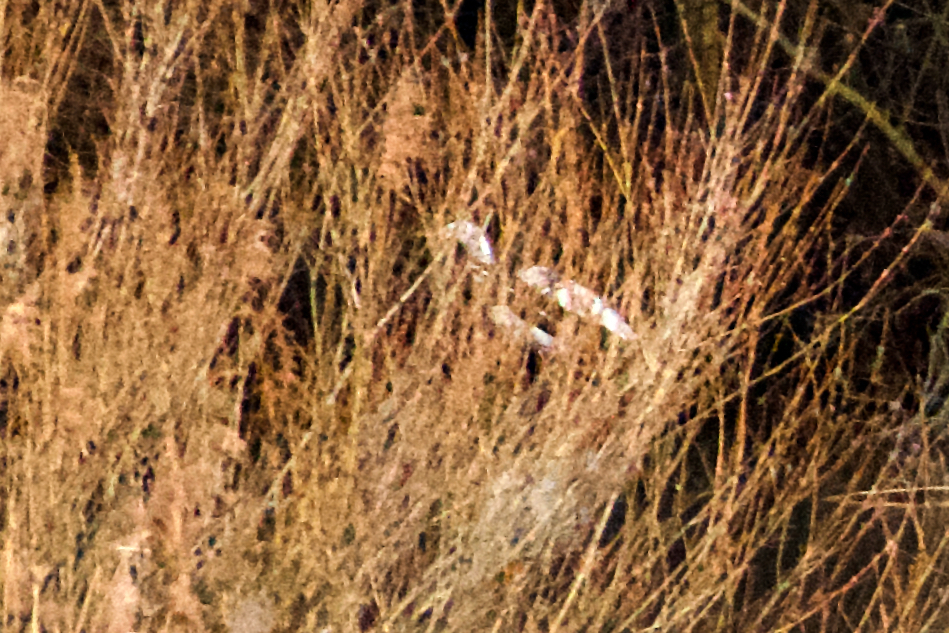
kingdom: Animalia
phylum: Chordata
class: Aves
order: Pelecaniformes
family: Ardeidae
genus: Ardea
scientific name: Ardea alba
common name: Great egret
